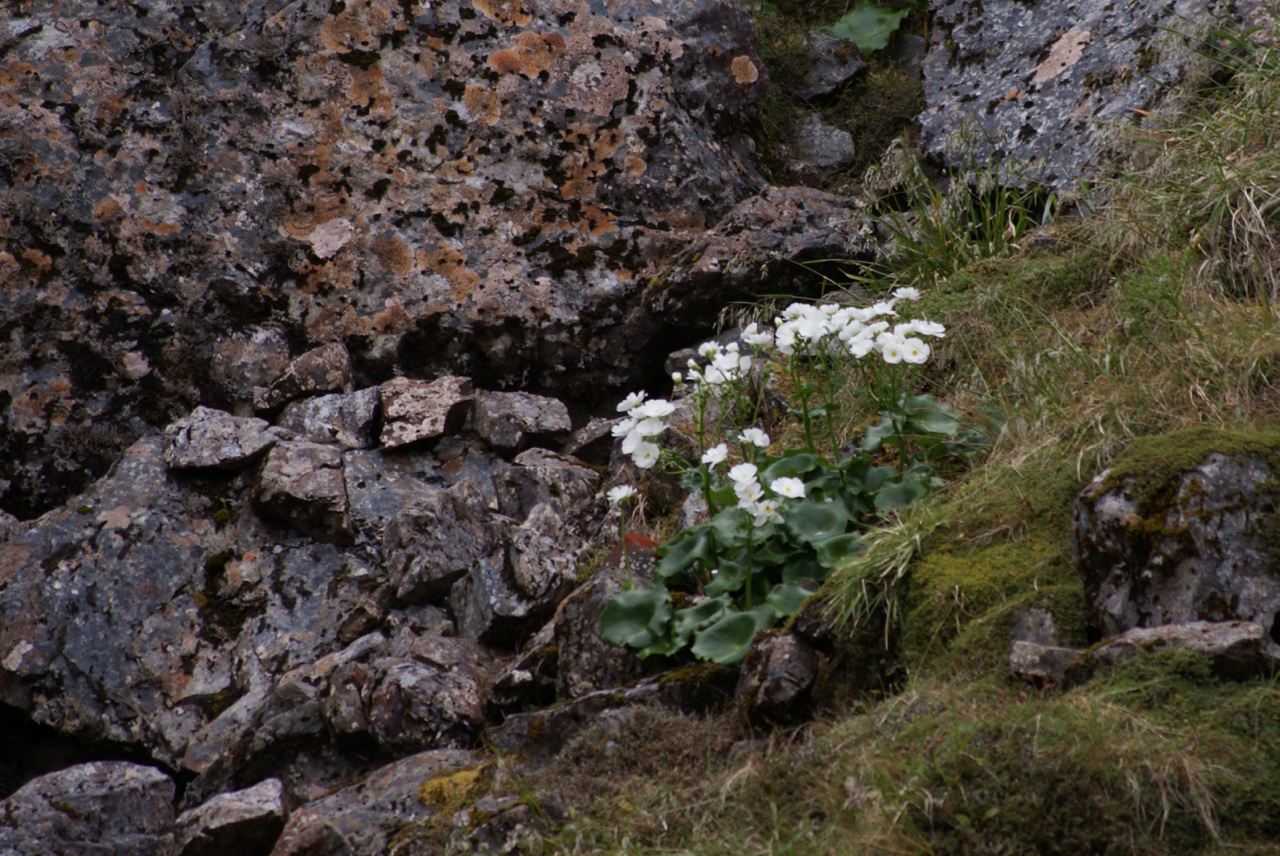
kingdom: Plantae
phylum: Tracheophyta
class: Magnoliopsida
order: Ranunculales
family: Ranunculaceae
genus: Ranunculus
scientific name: Ranunculus lyallii
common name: Mountain-lily
